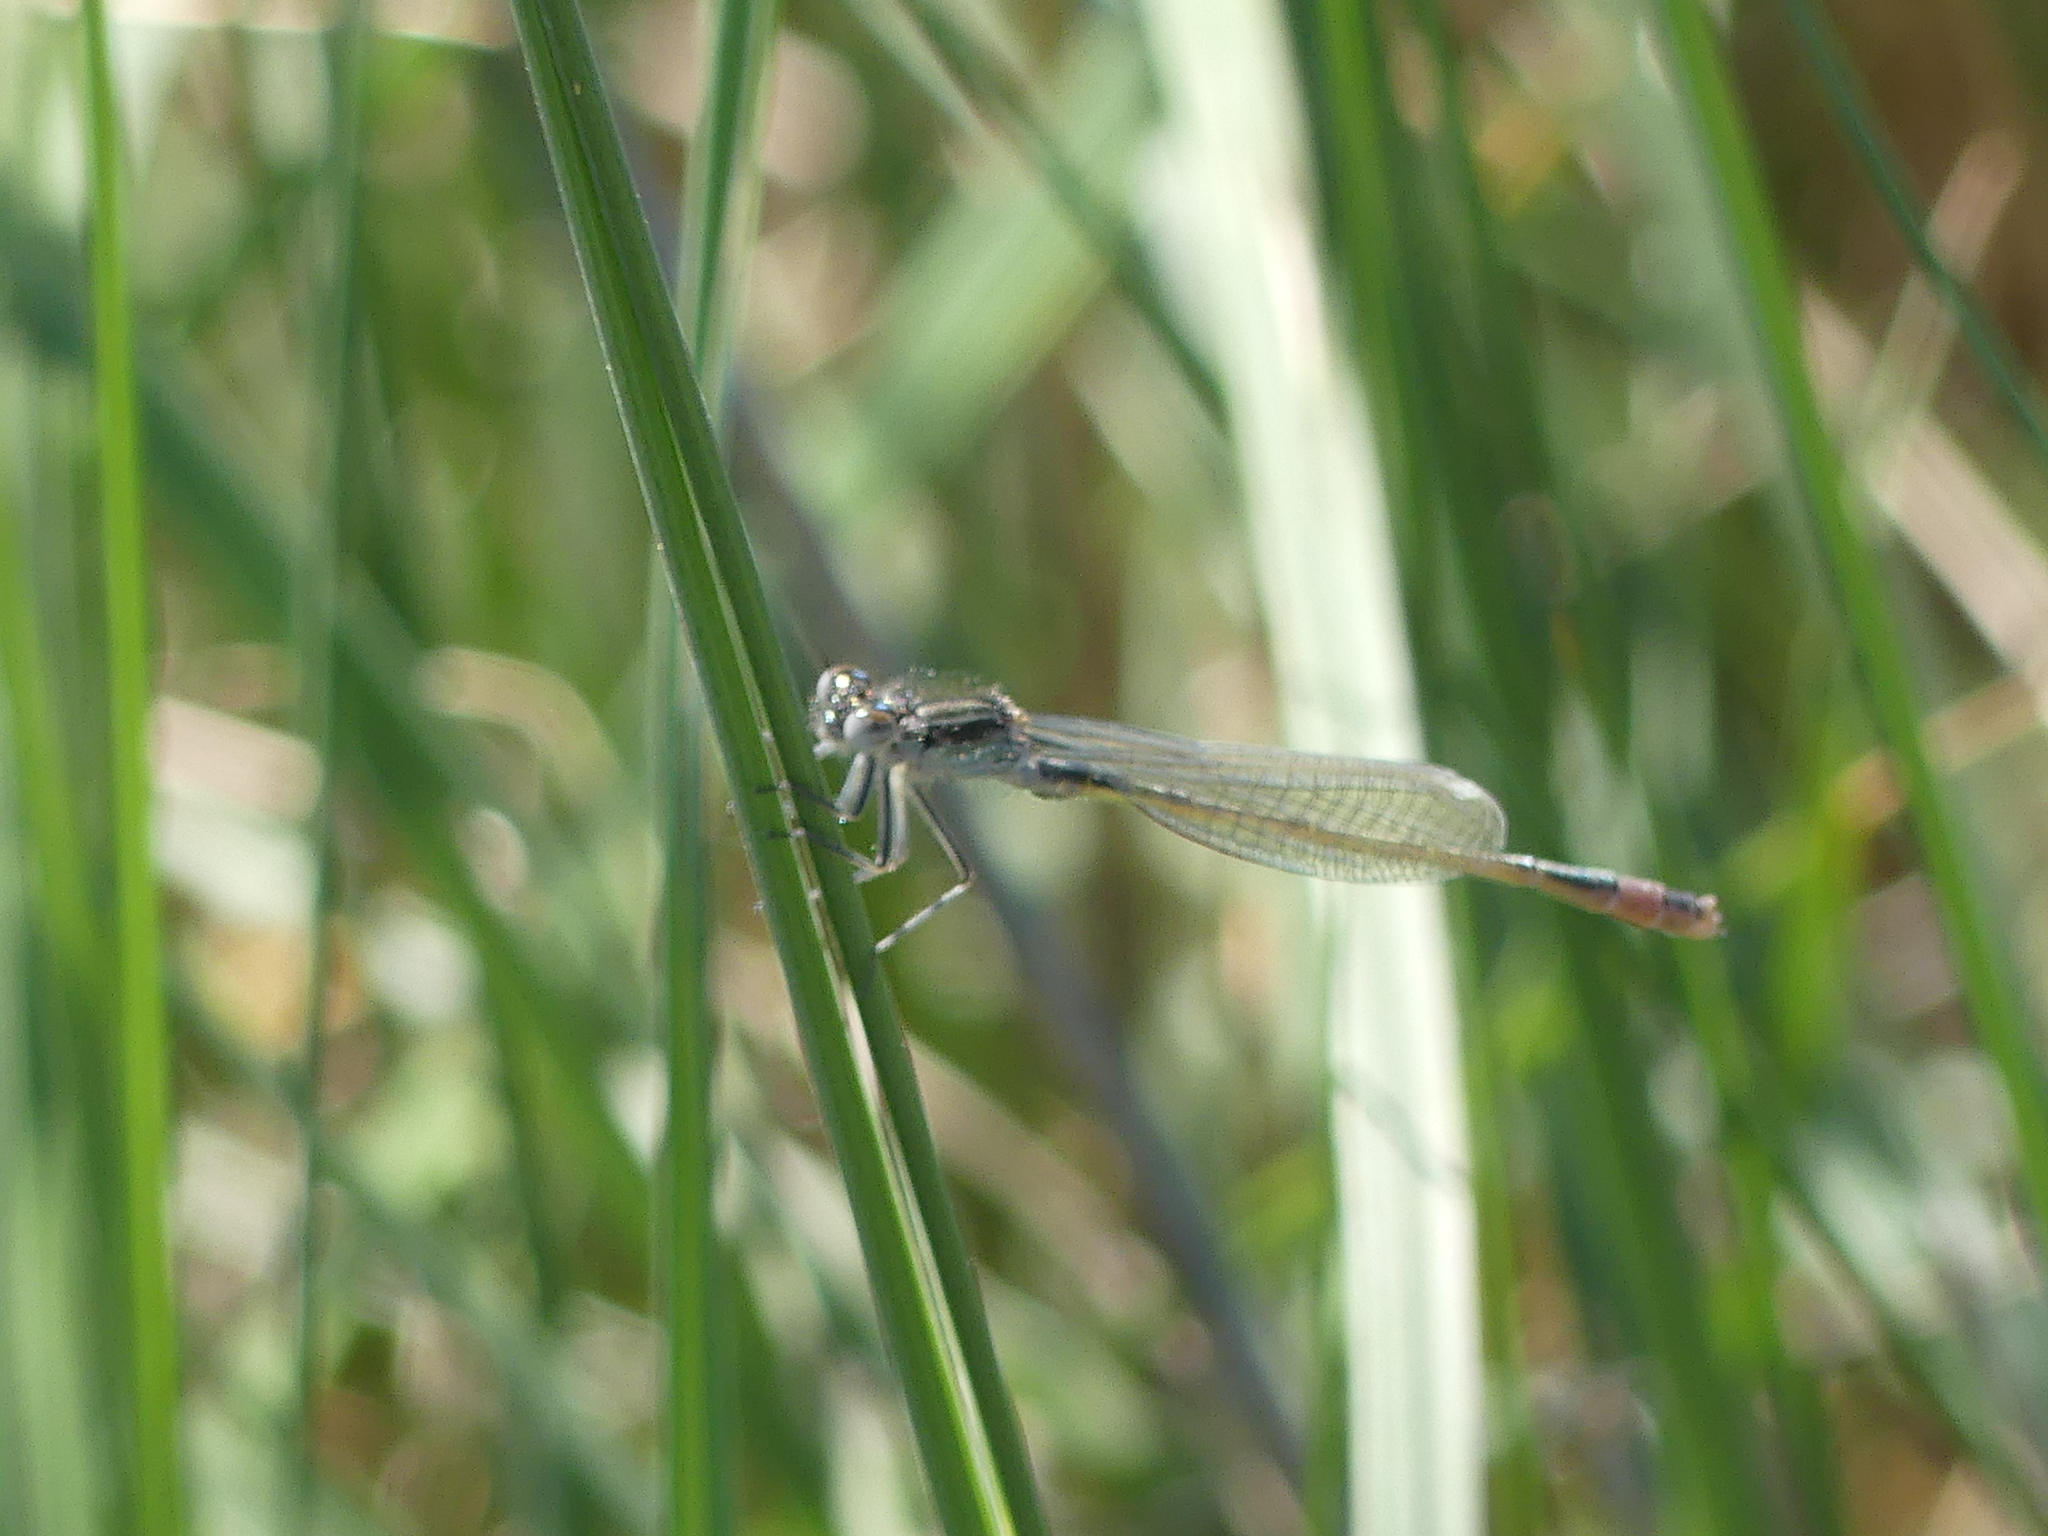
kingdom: Animalia
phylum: Arthropoda
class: Insecta
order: Odonata
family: Coenagrionidae
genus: Ischnura
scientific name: Ischnura elegans
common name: Blue-tailed damselfly
